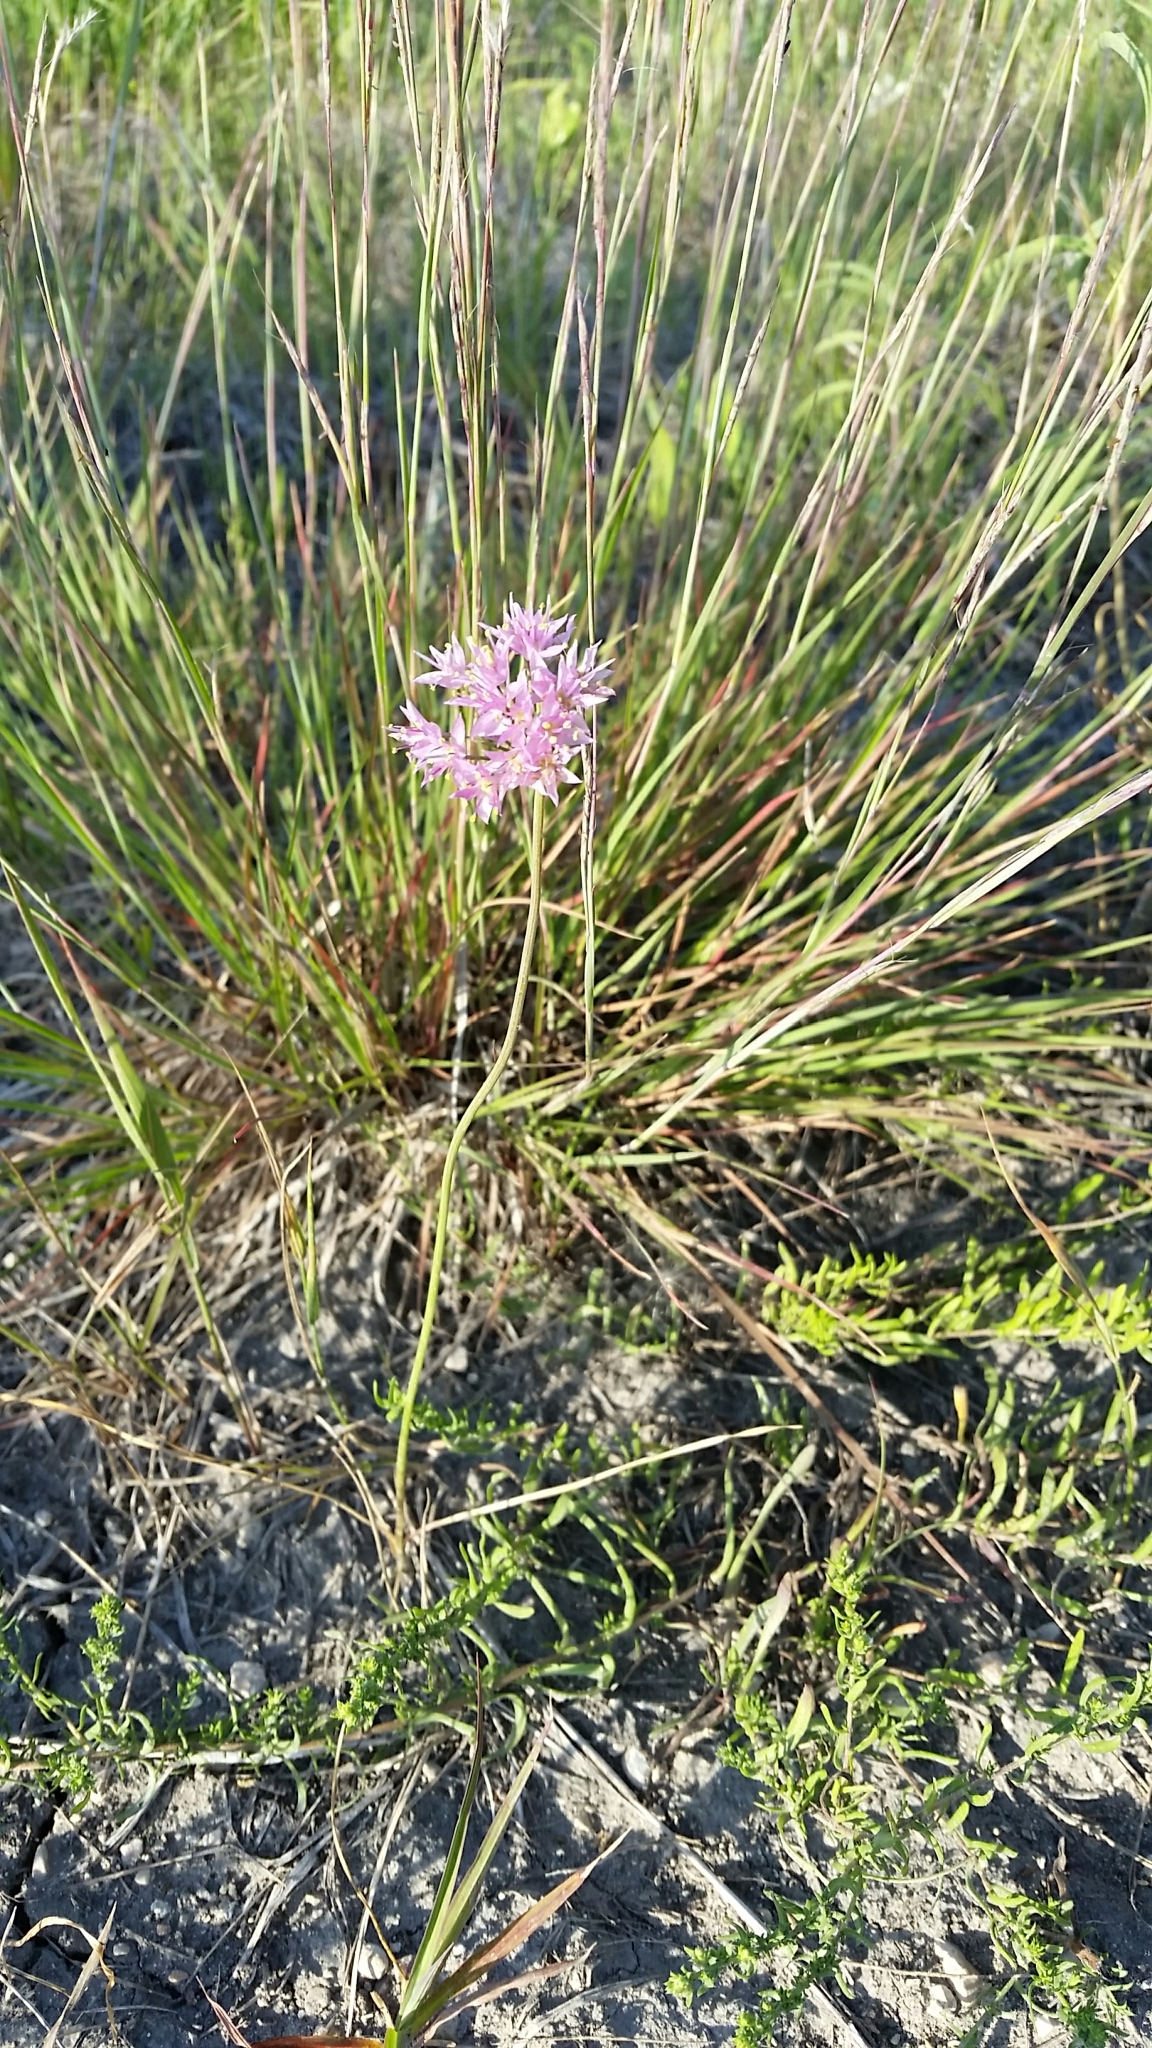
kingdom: Plantae
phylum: Tracheophyta
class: Liliopsida
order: Asparagales
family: Amaryllidaceae
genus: Allium
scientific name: Allium stellatum
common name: Autumn onion
